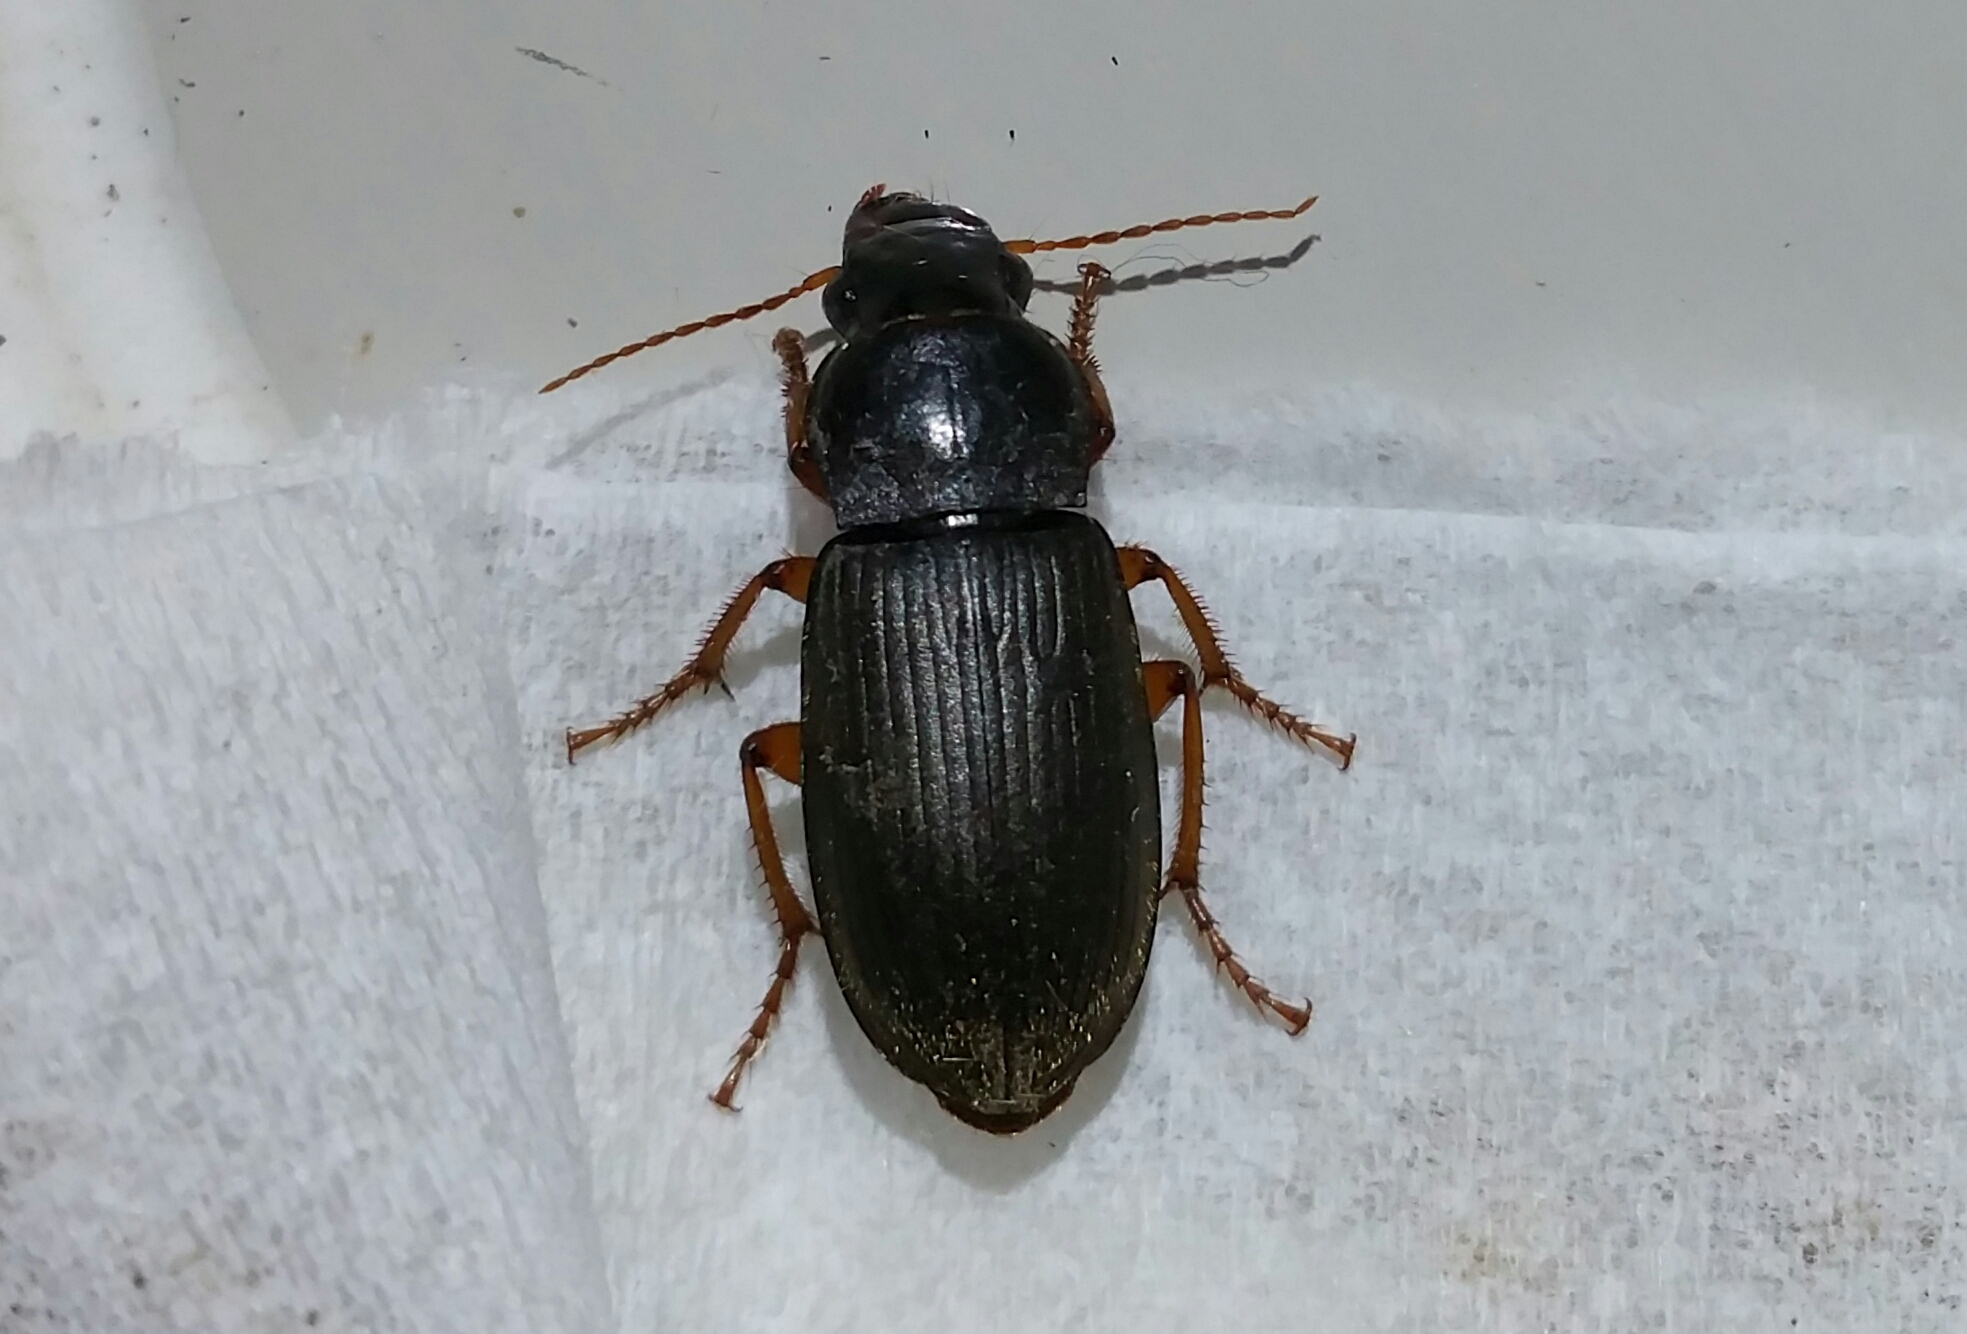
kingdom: Animalia
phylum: Arthropoda
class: Insecta
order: Coleoptera
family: Carabidae
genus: Harpalus
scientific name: Harpalus rufipes
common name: Strawberry harp ground beetle
